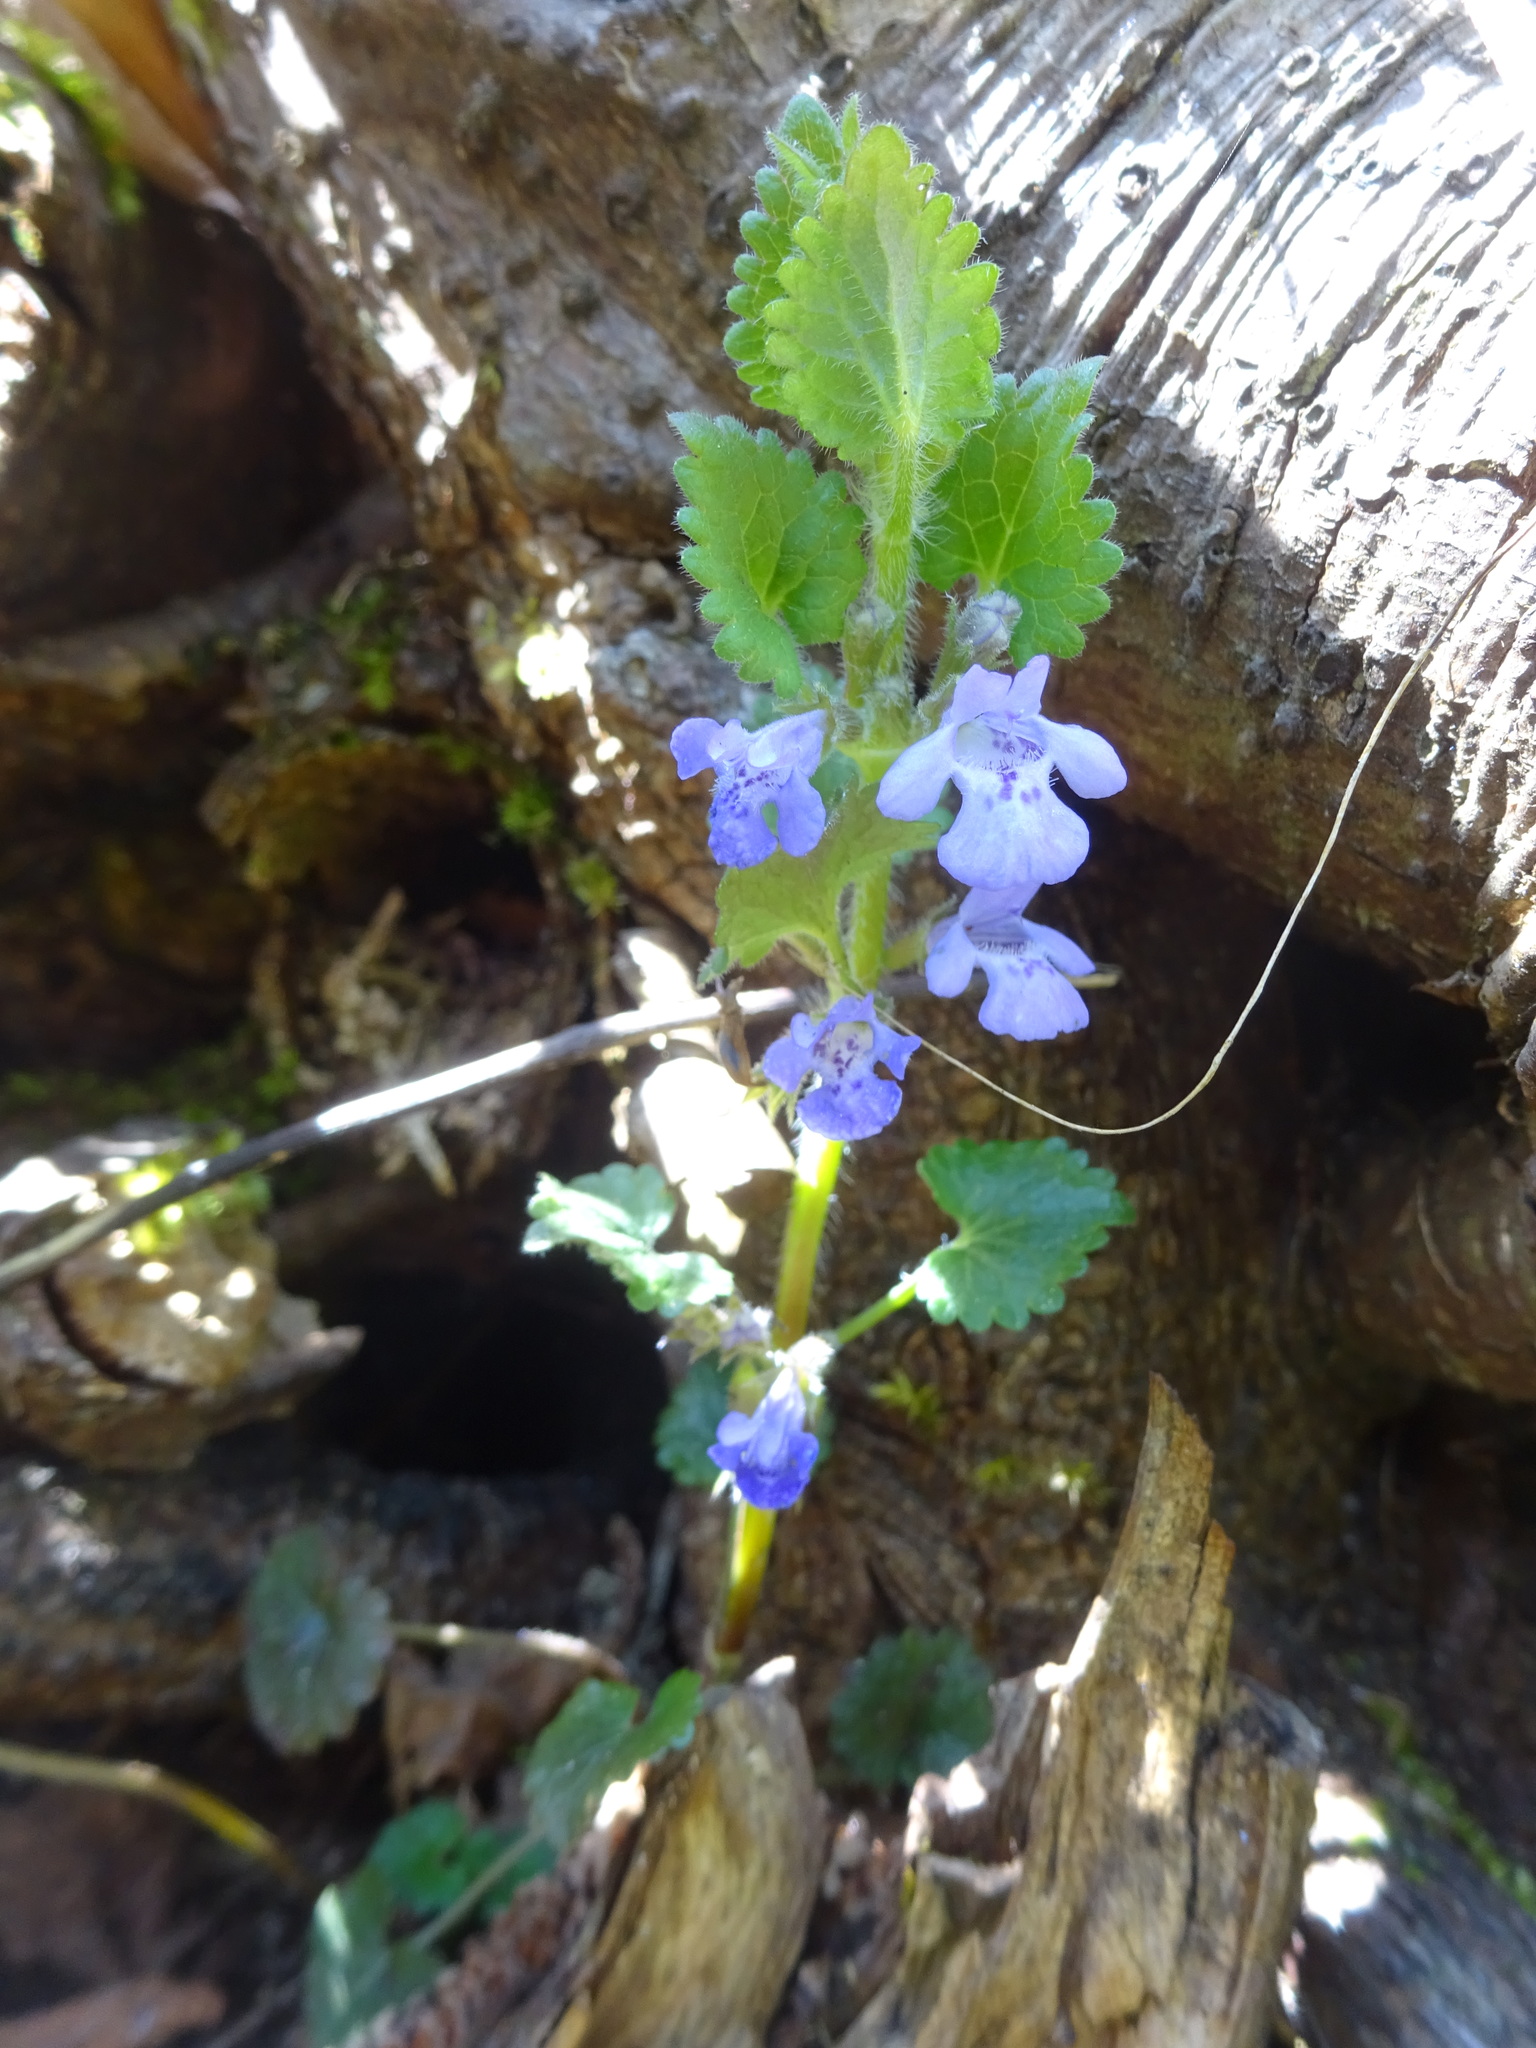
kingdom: Plantae
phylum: Tracheophyta
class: Magnoliopsida
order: Lamiales
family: Lamiaceae
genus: Glechoma
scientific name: Glechoma hirsuta
